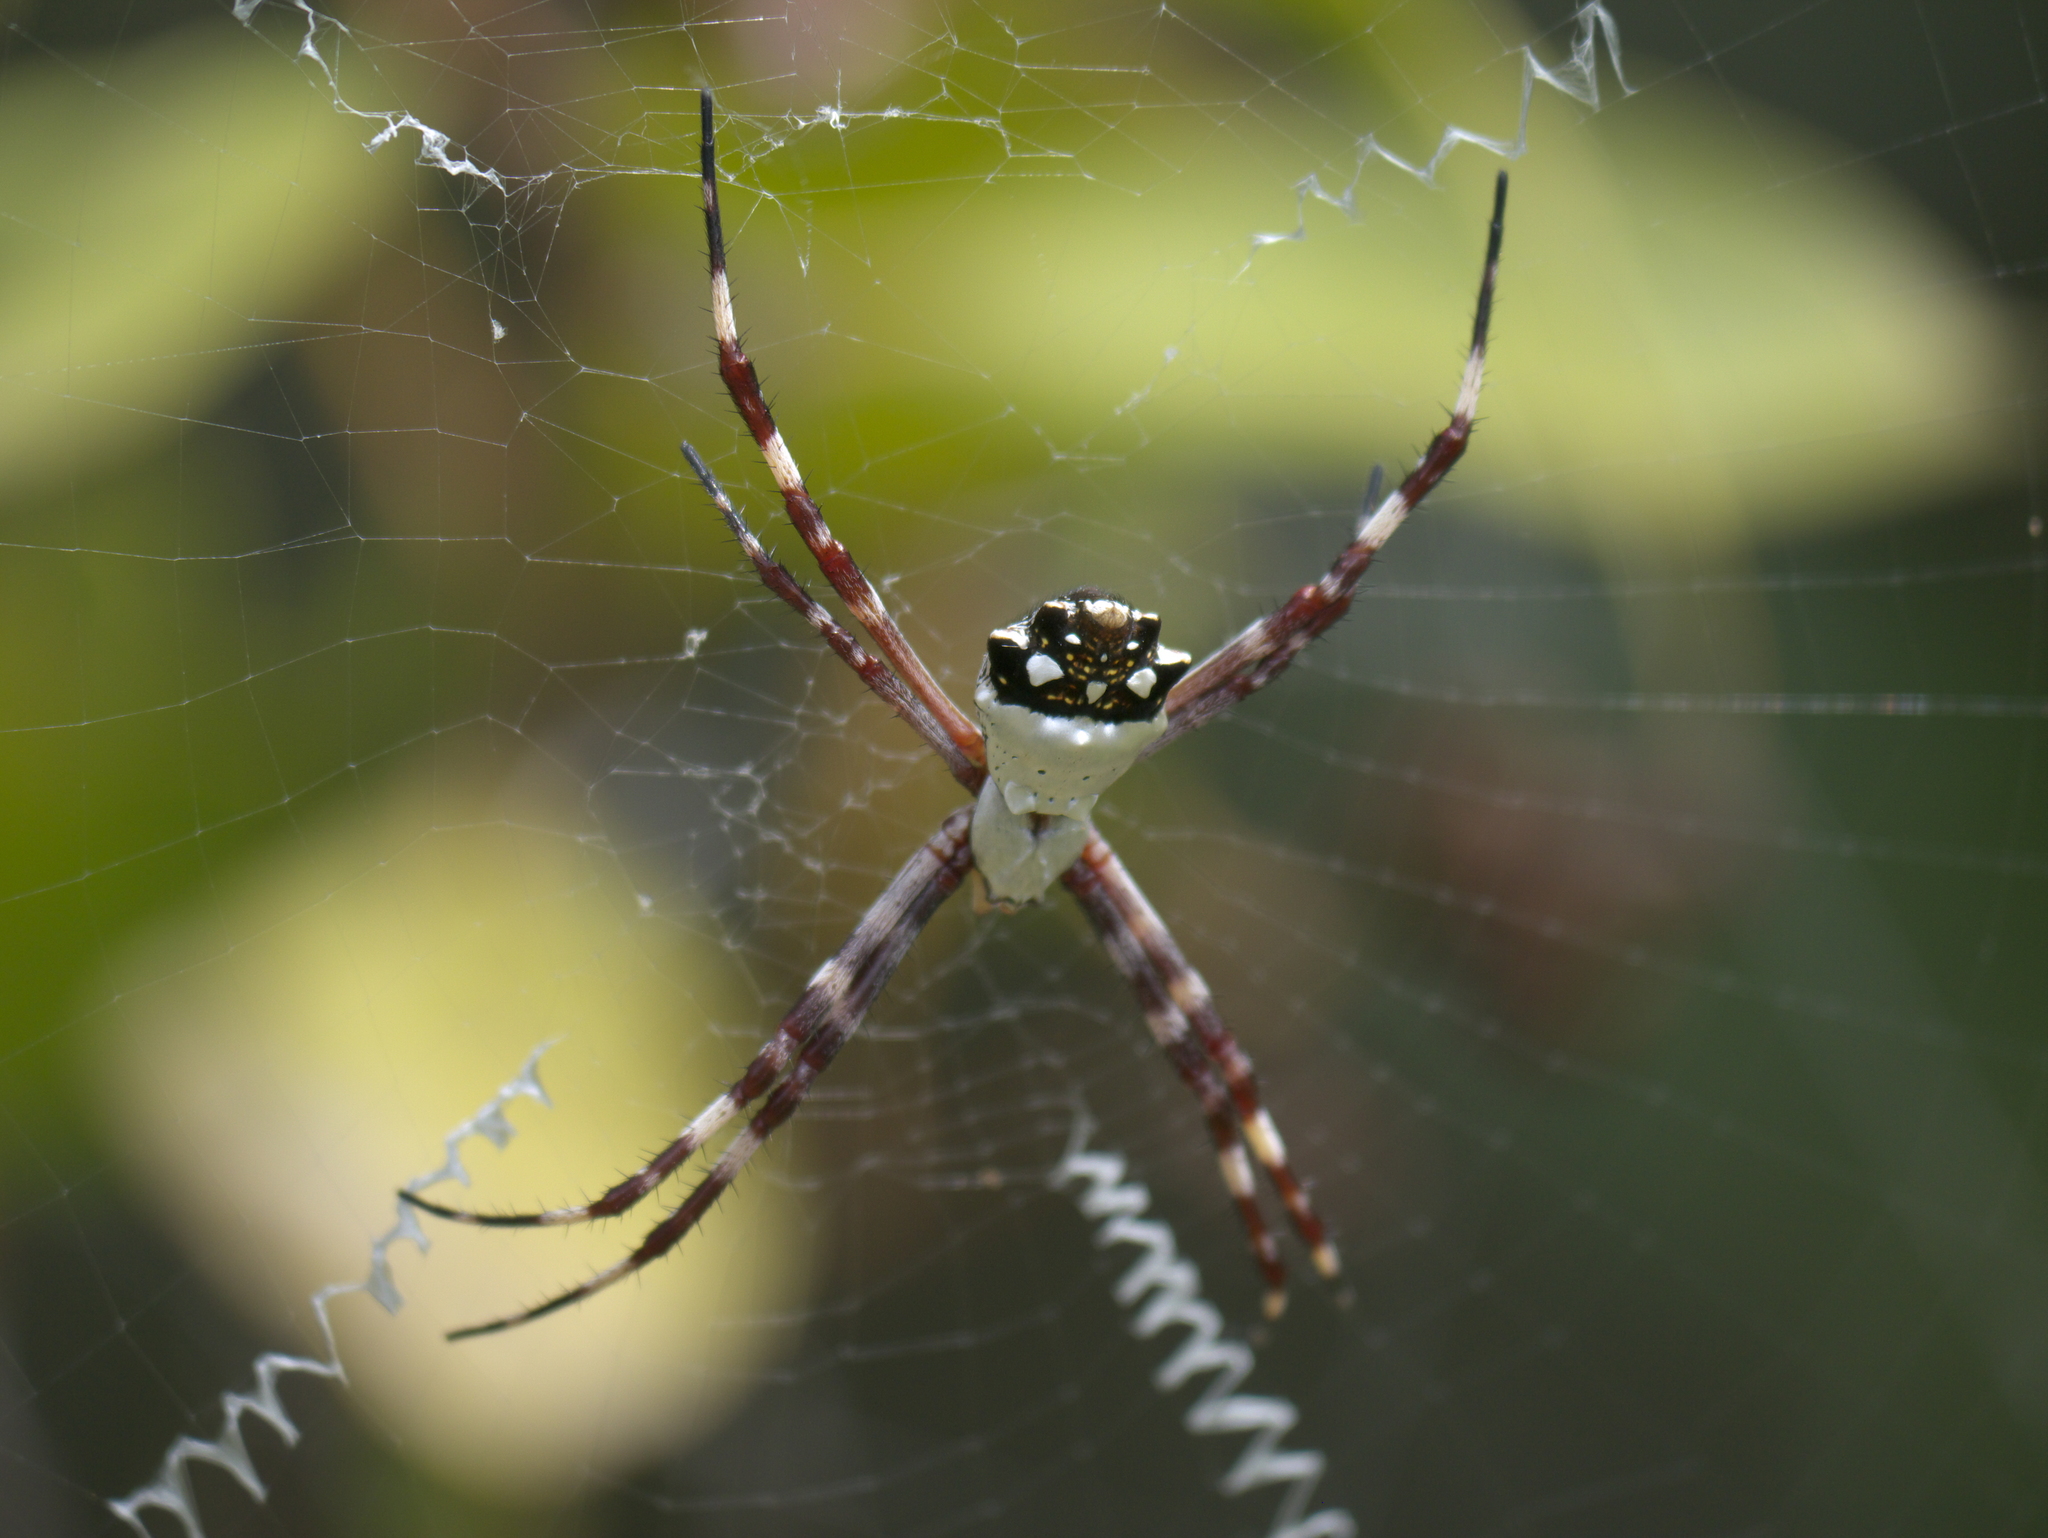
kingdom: Animalia
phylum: Arthropoda
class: Arachnida
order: Araneae
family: Araneidae
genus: Argiope
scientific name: Argiope argentata
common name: Orb weavers
